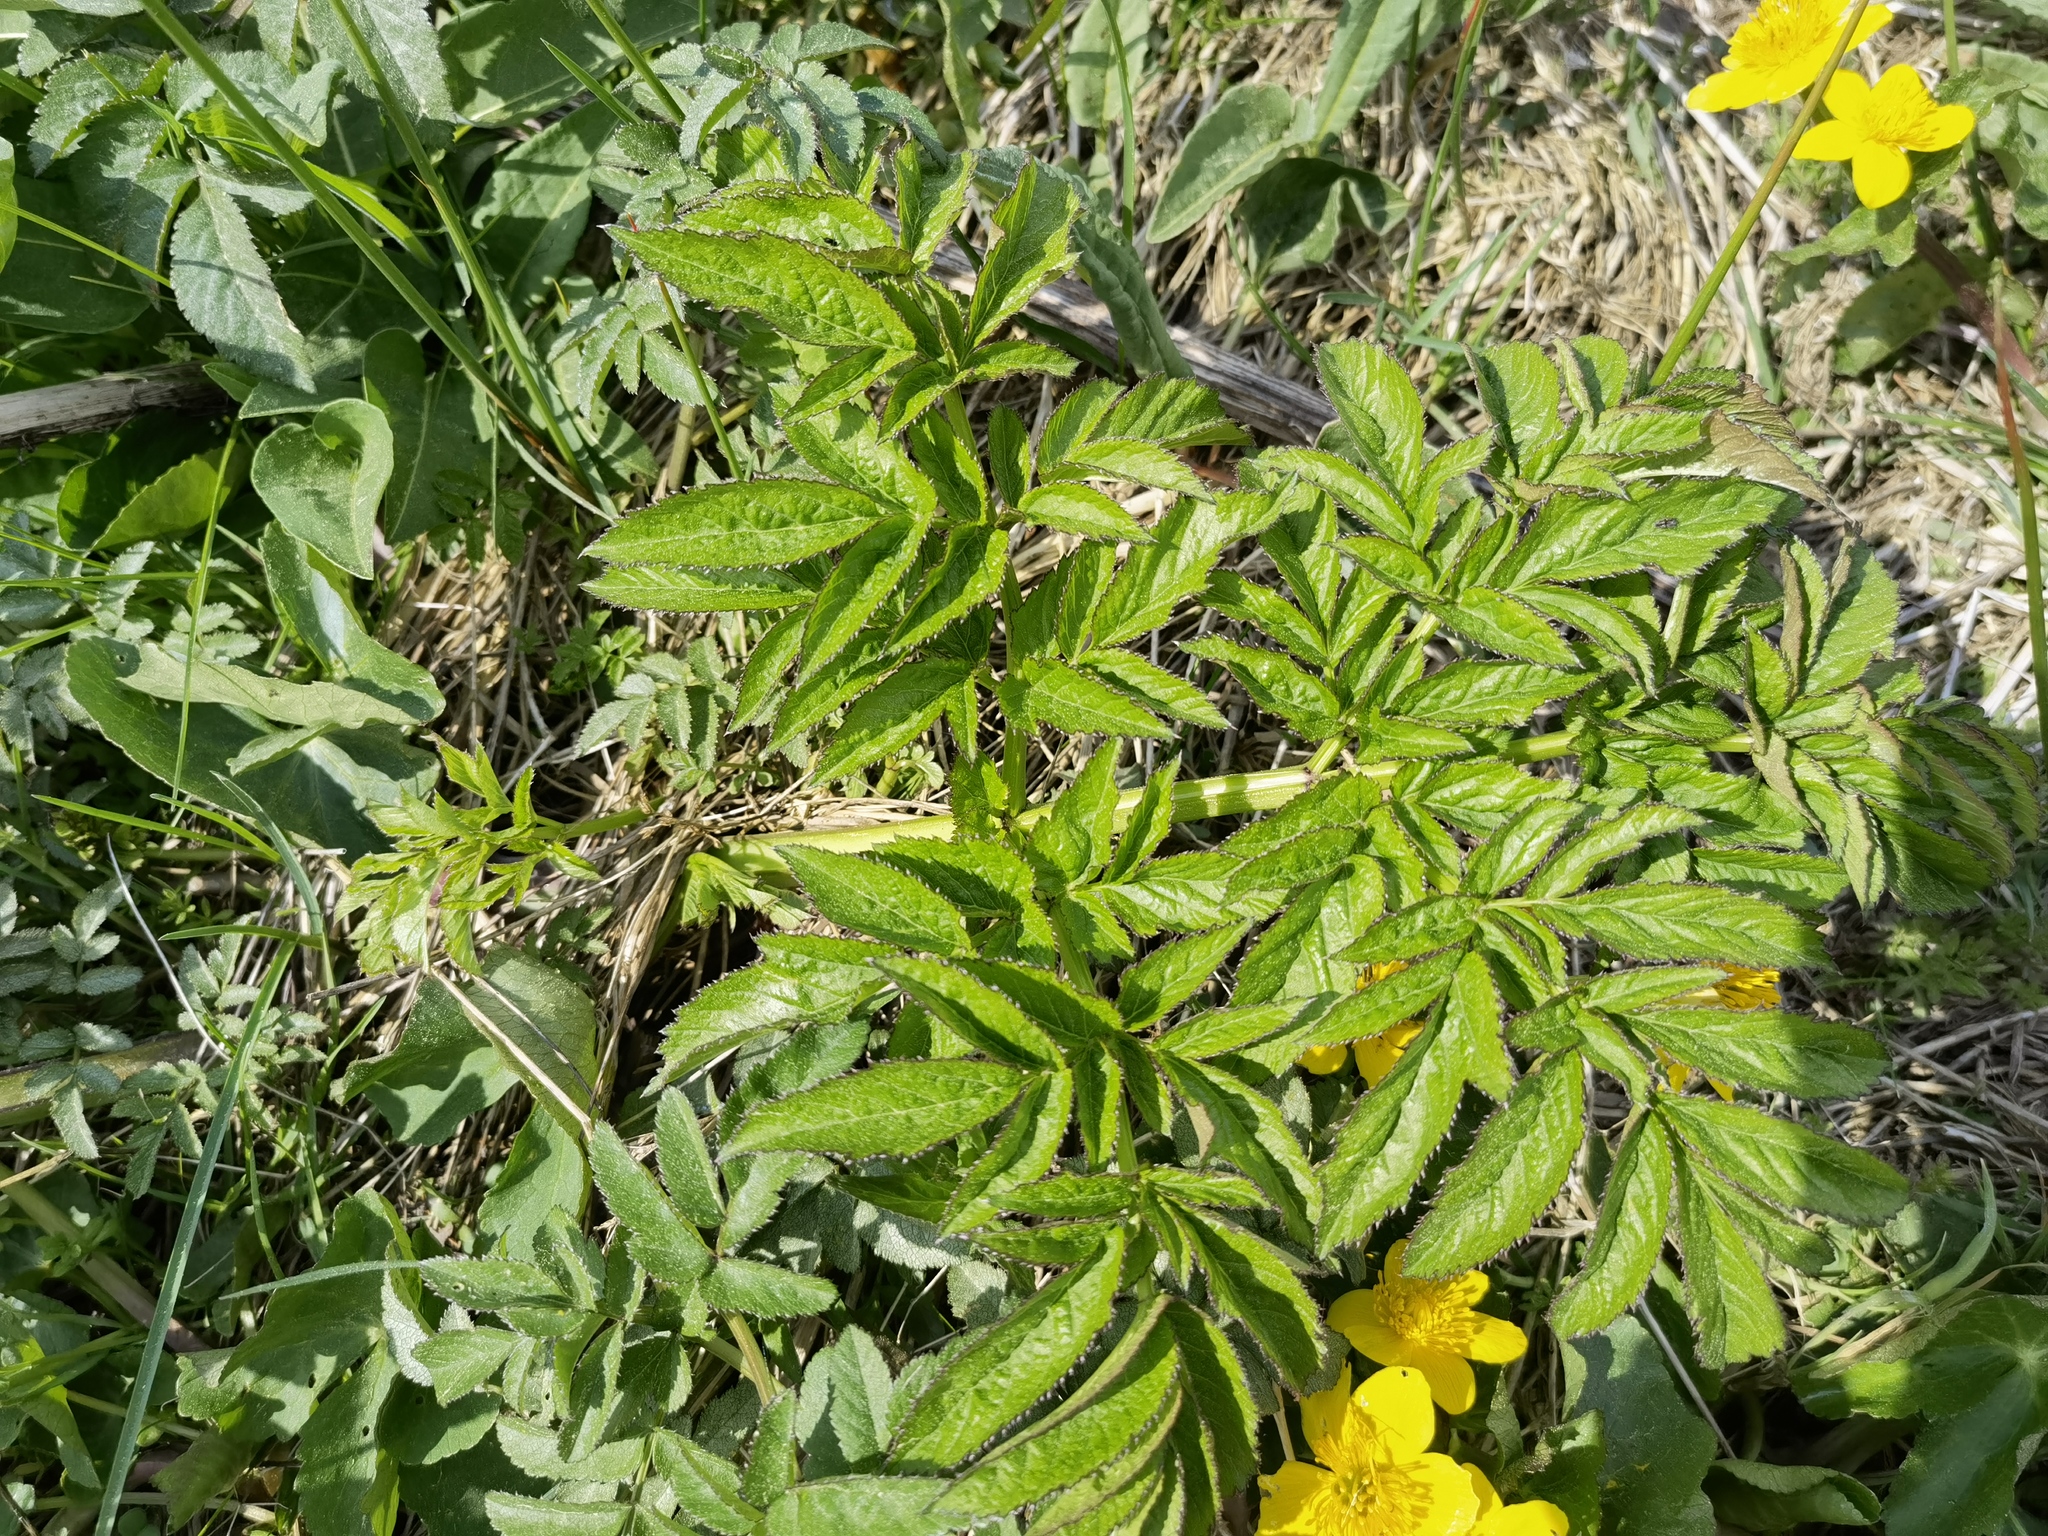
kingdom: Plantae
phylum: Tracheophyta
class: Magnoliopsida
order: Apiales
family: Apiaceae
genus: Angelica
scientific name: Angelica sylvestris
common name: Wild angelica
